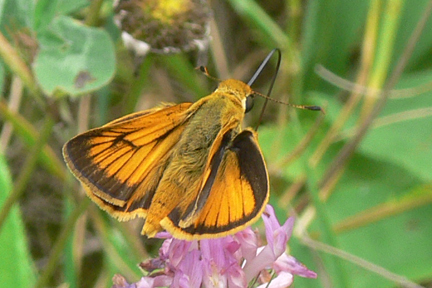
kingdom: Animalia
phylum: Arthropoda
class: Insecta
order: Lepidoptera
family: Hesperiidae
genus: Atrytone
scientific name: Atrytone delaware
